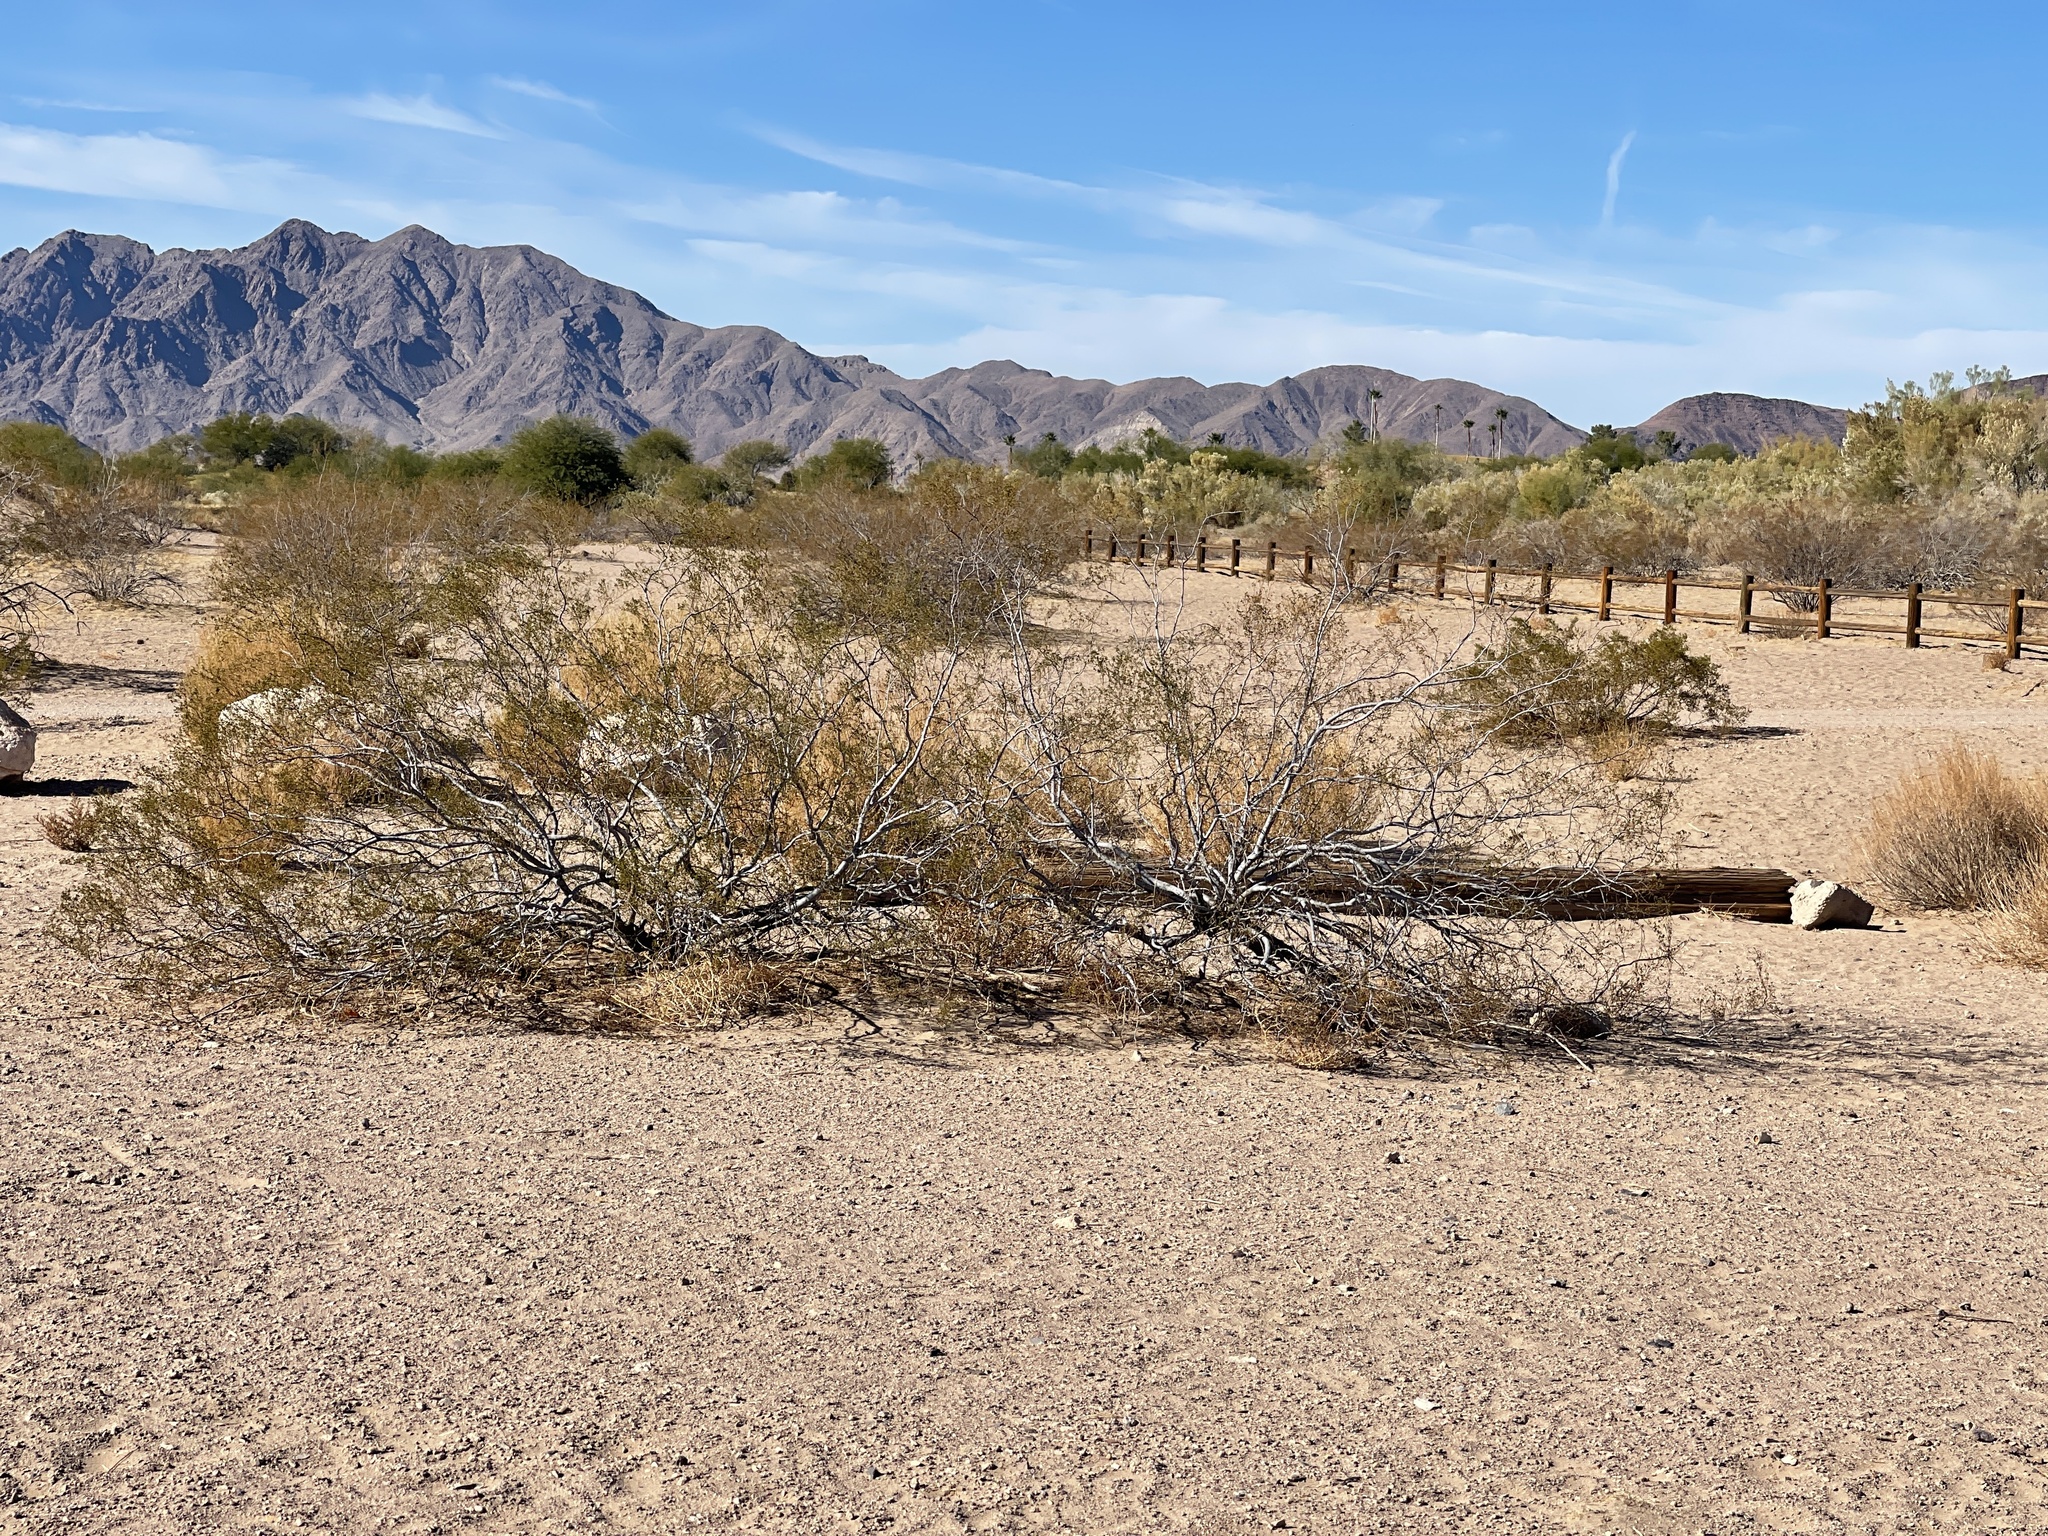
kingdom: Plantae
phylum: Tracheophyta
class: Magnoliopsida
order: Zygophyllales
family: Zygophyllaceae
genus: Larrea
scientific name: Larrea tridentata
